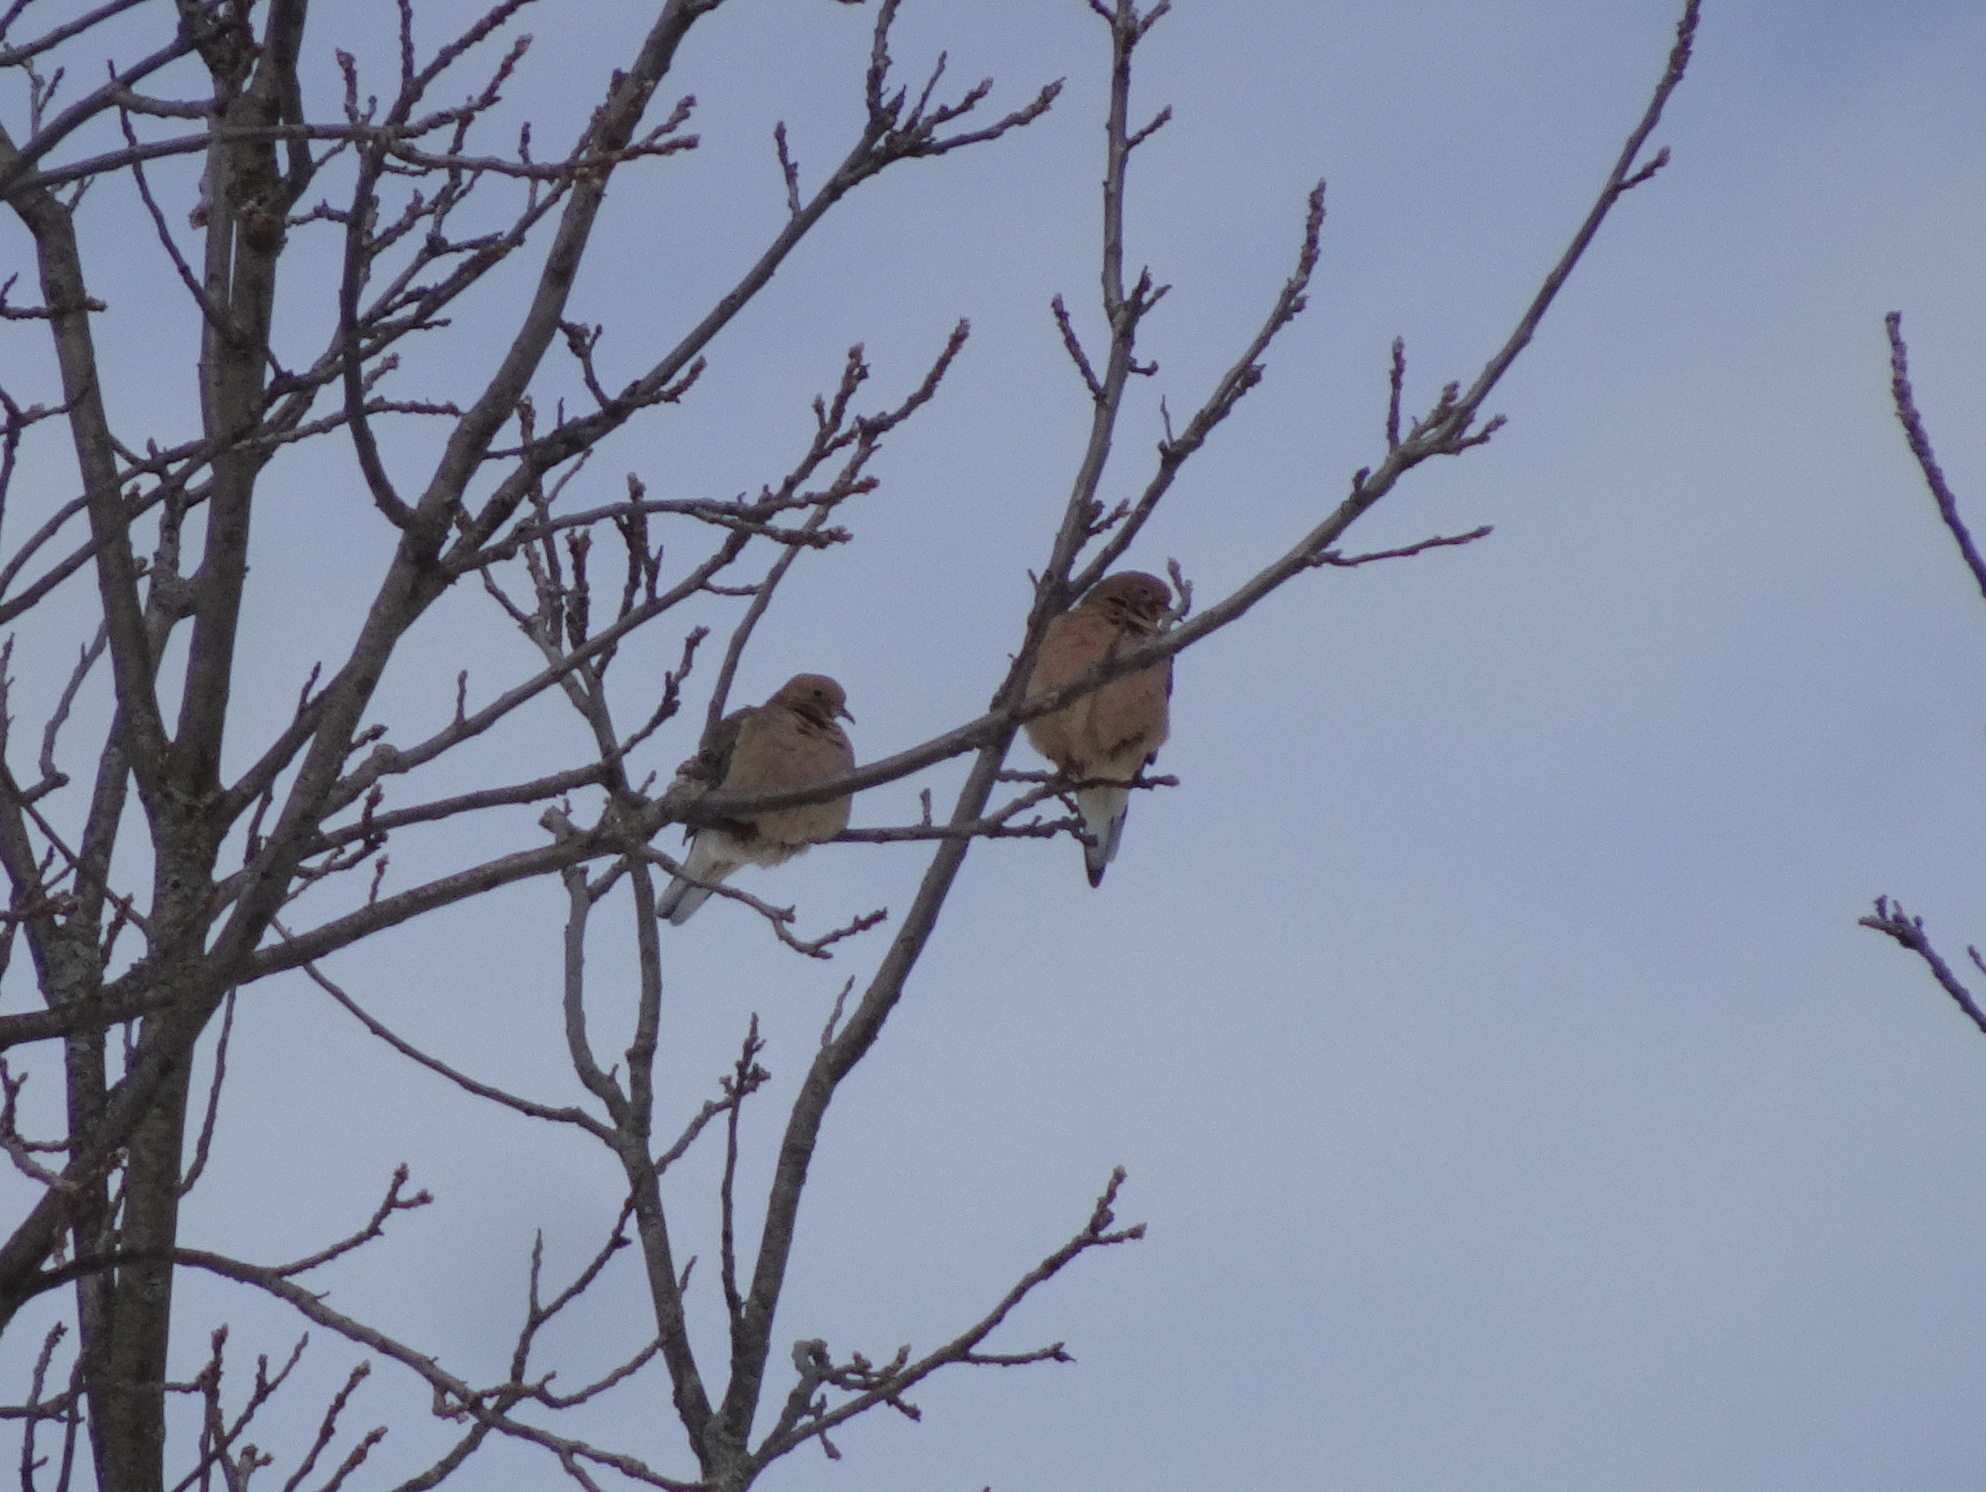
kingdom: Animalia
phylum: Chordata
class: Aves
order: Columbiformes
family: Columbidae
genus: Zenaida
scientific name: Zenaida macroura
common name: Mourning dove
